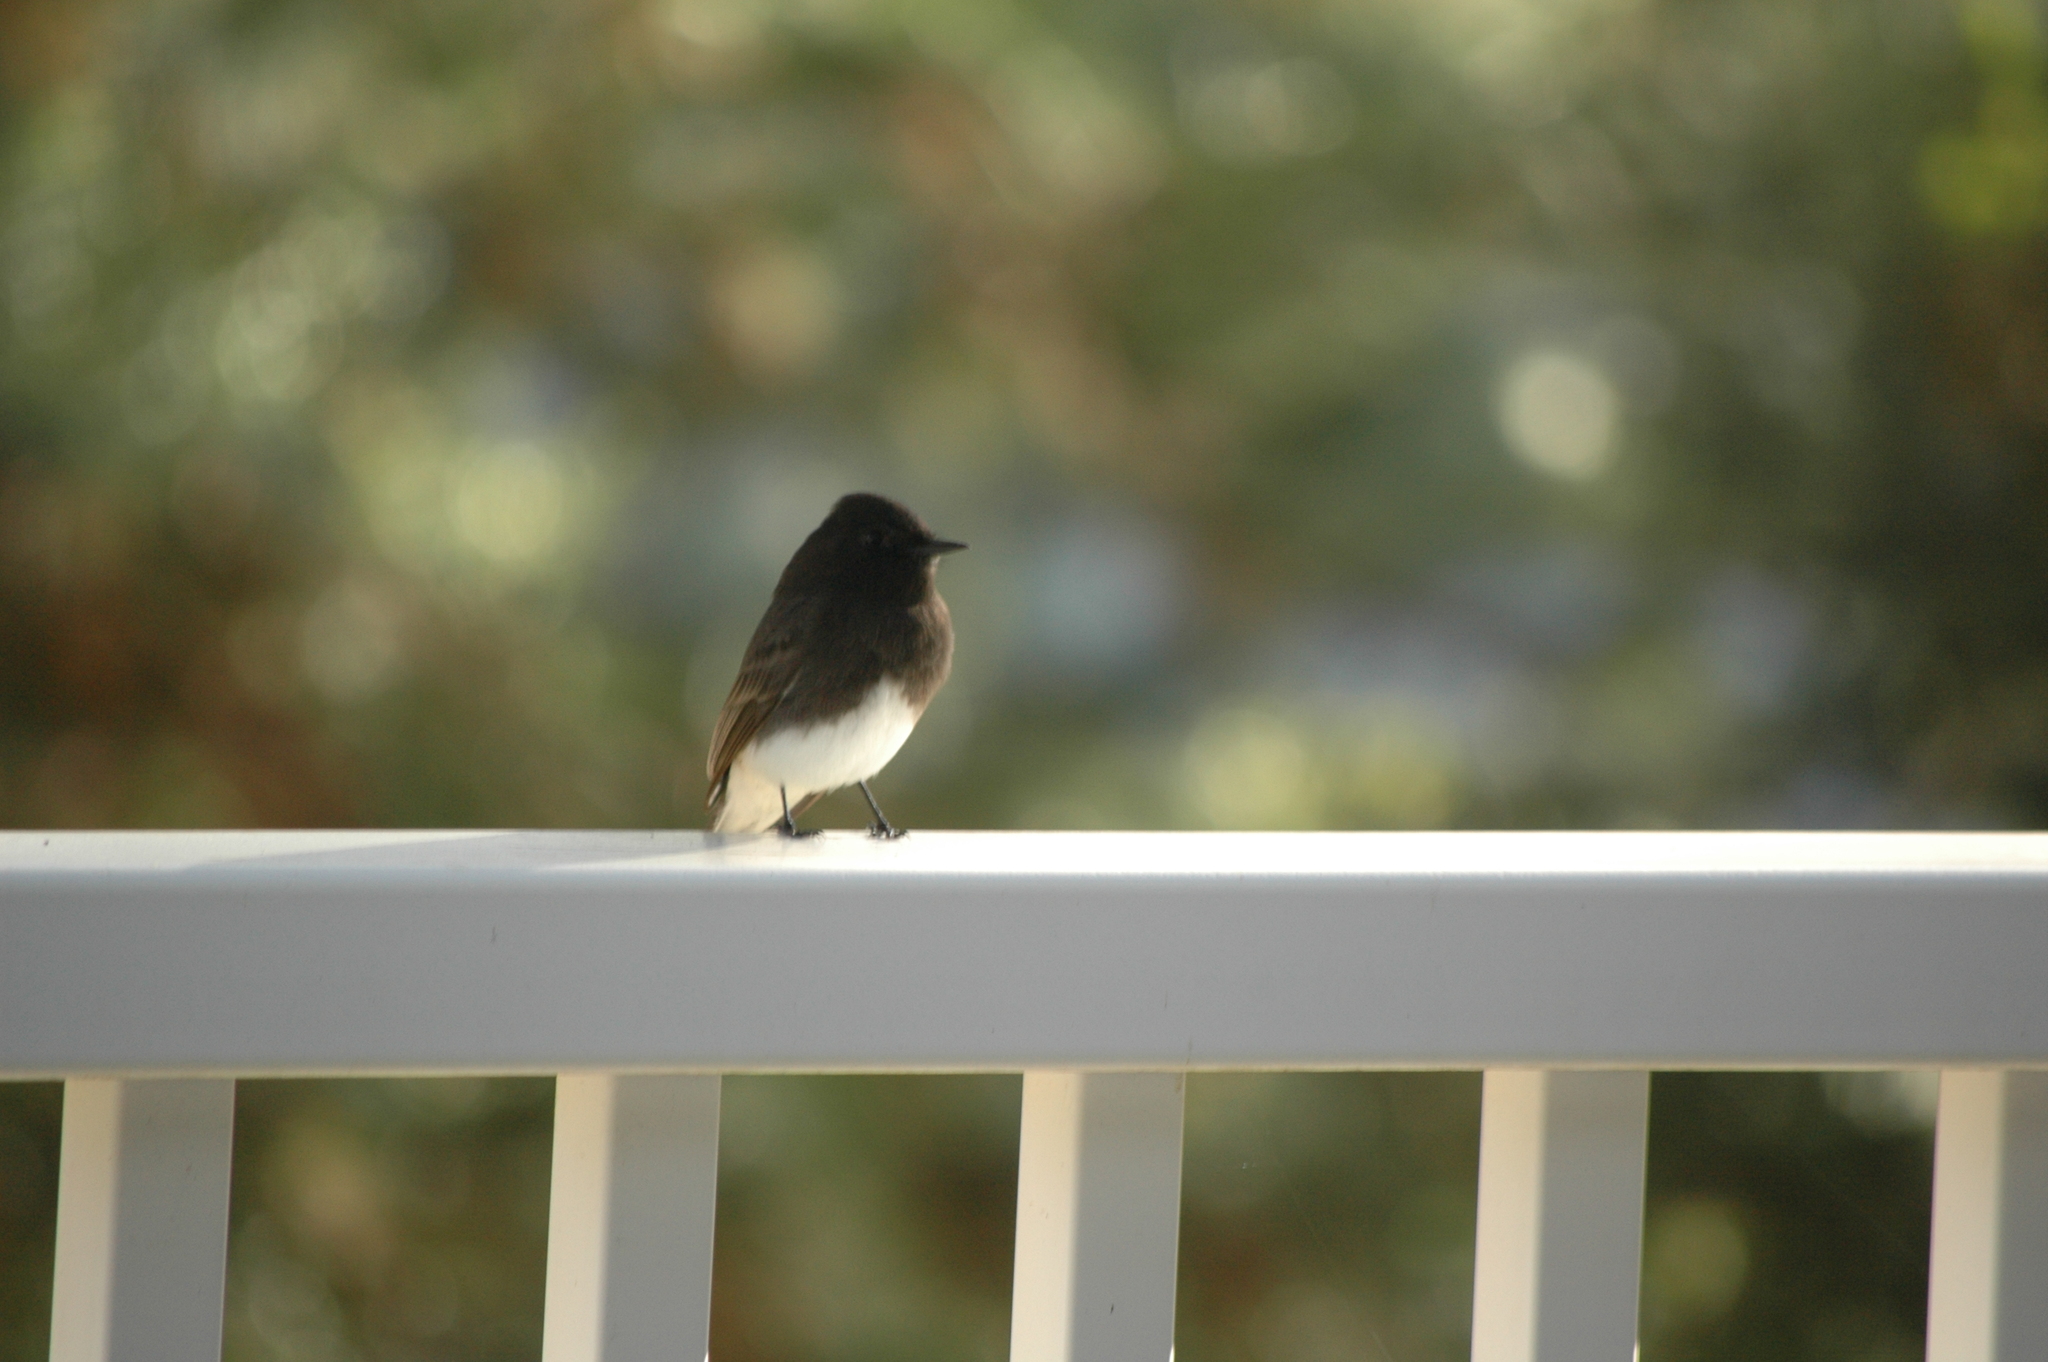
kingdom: Animalia
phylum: Chordata
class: Aves
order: Passeriformes
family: Tyrannidae
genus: Sayornis
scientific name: Sayornis nigricans
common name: Black phoebe
